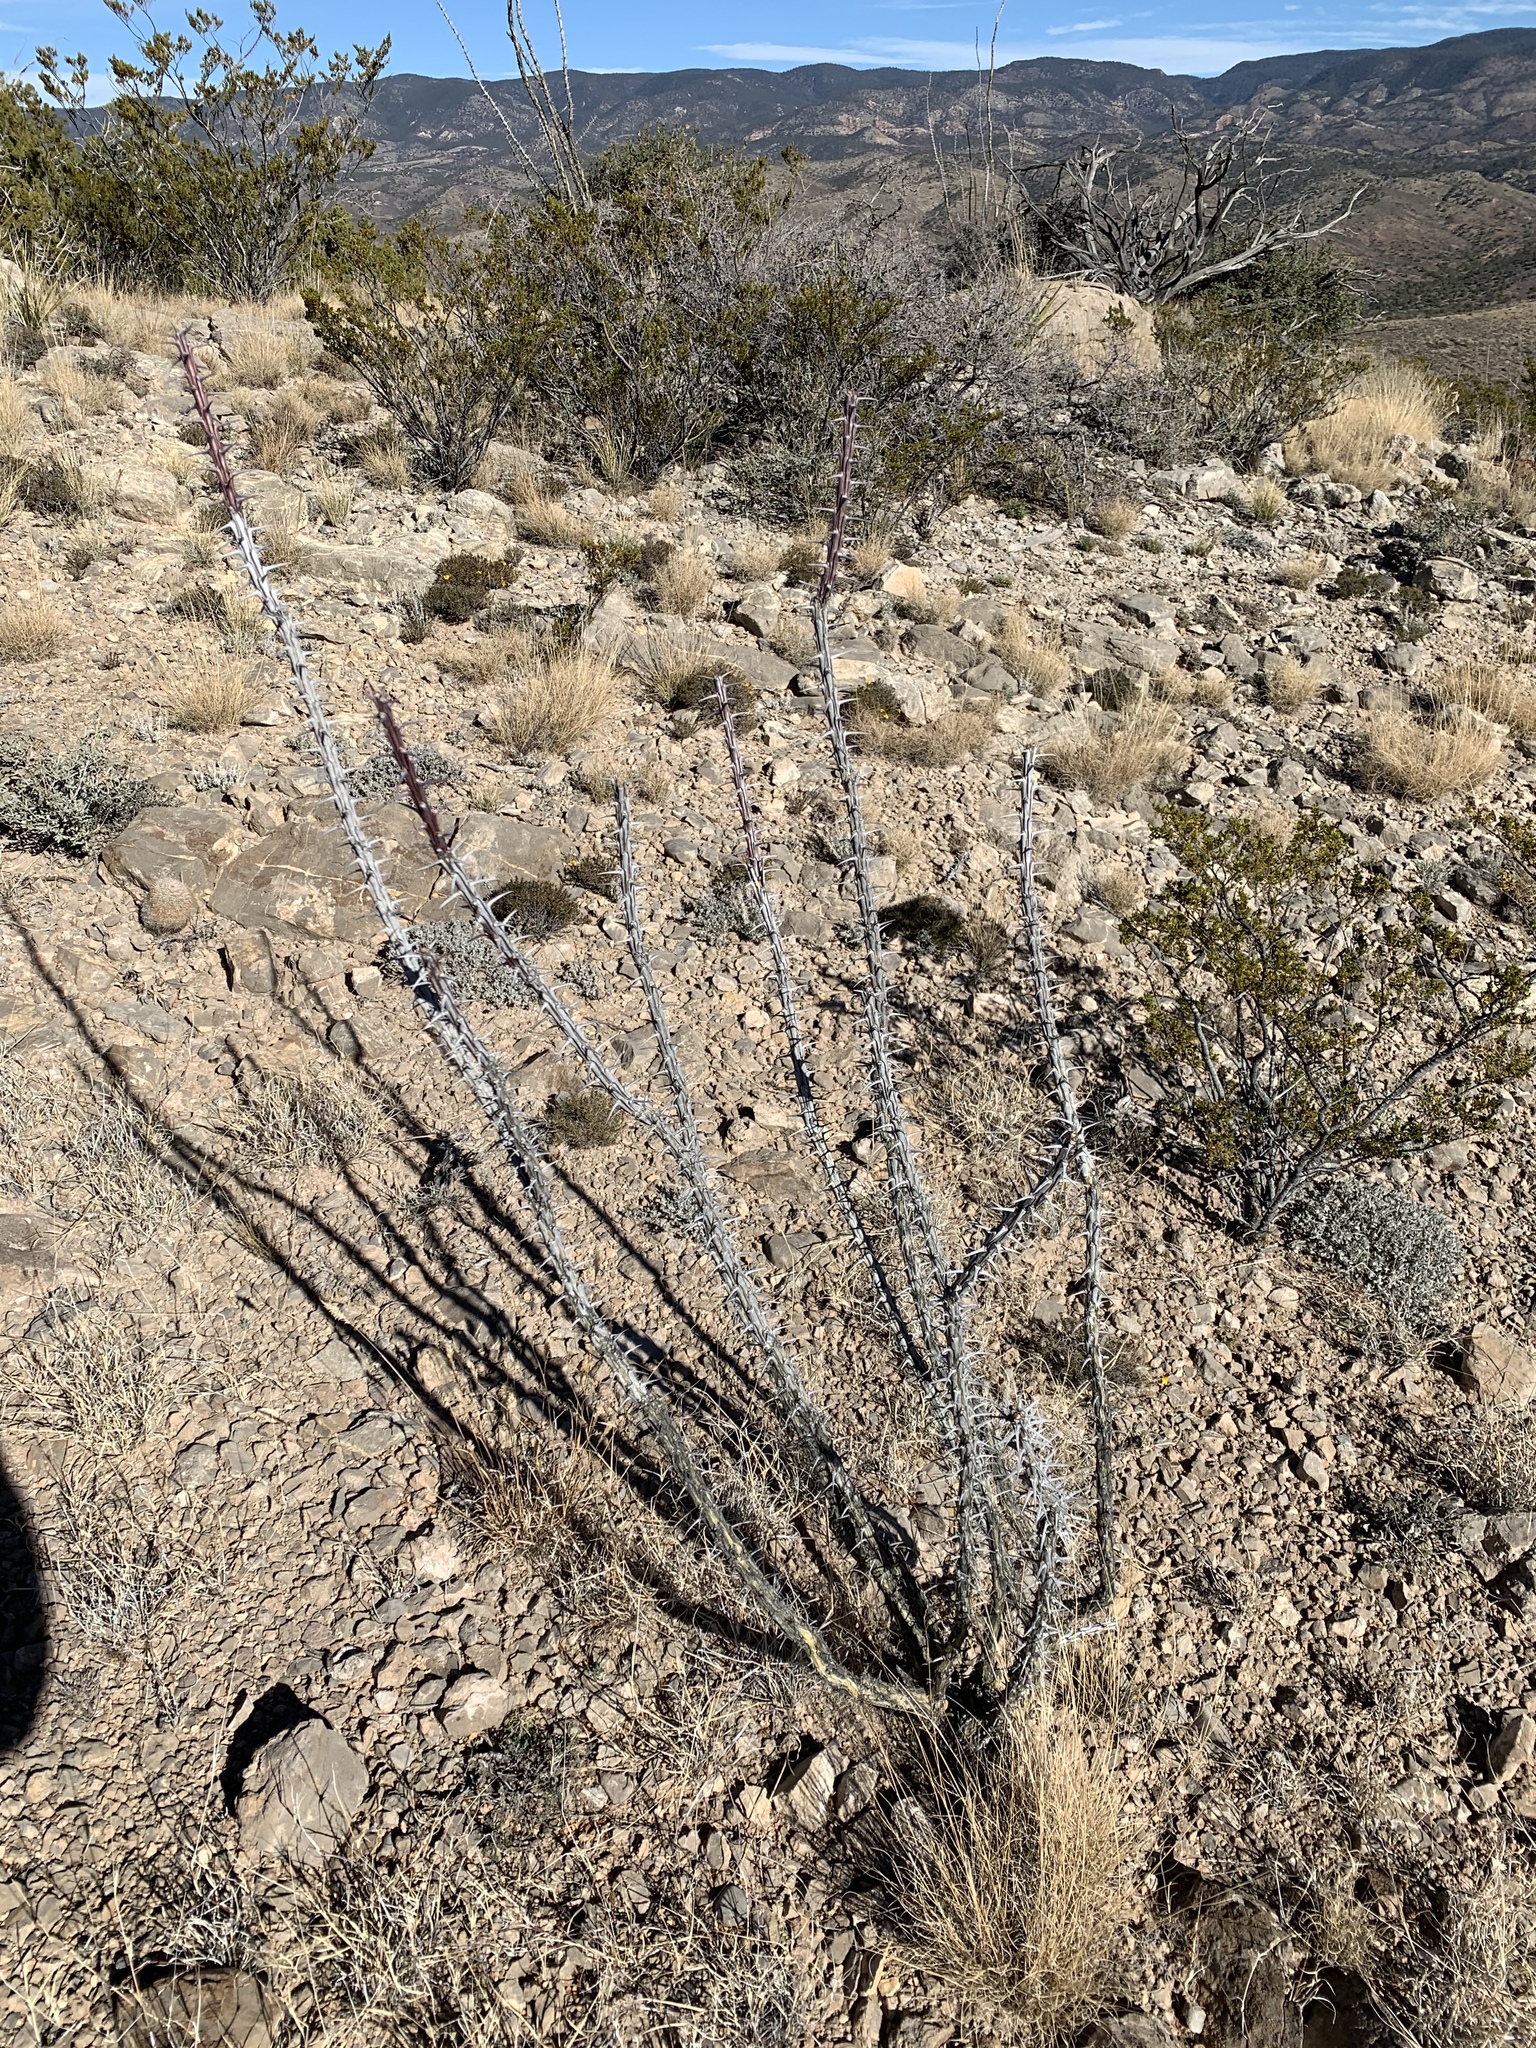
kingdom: Plantae
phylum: Tracheophyta
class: Magnoliopsida
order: Ericales
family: Fouquieriaceae
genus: Fouquieria
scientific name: Fouquieria splendens
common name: Vine-cactus
